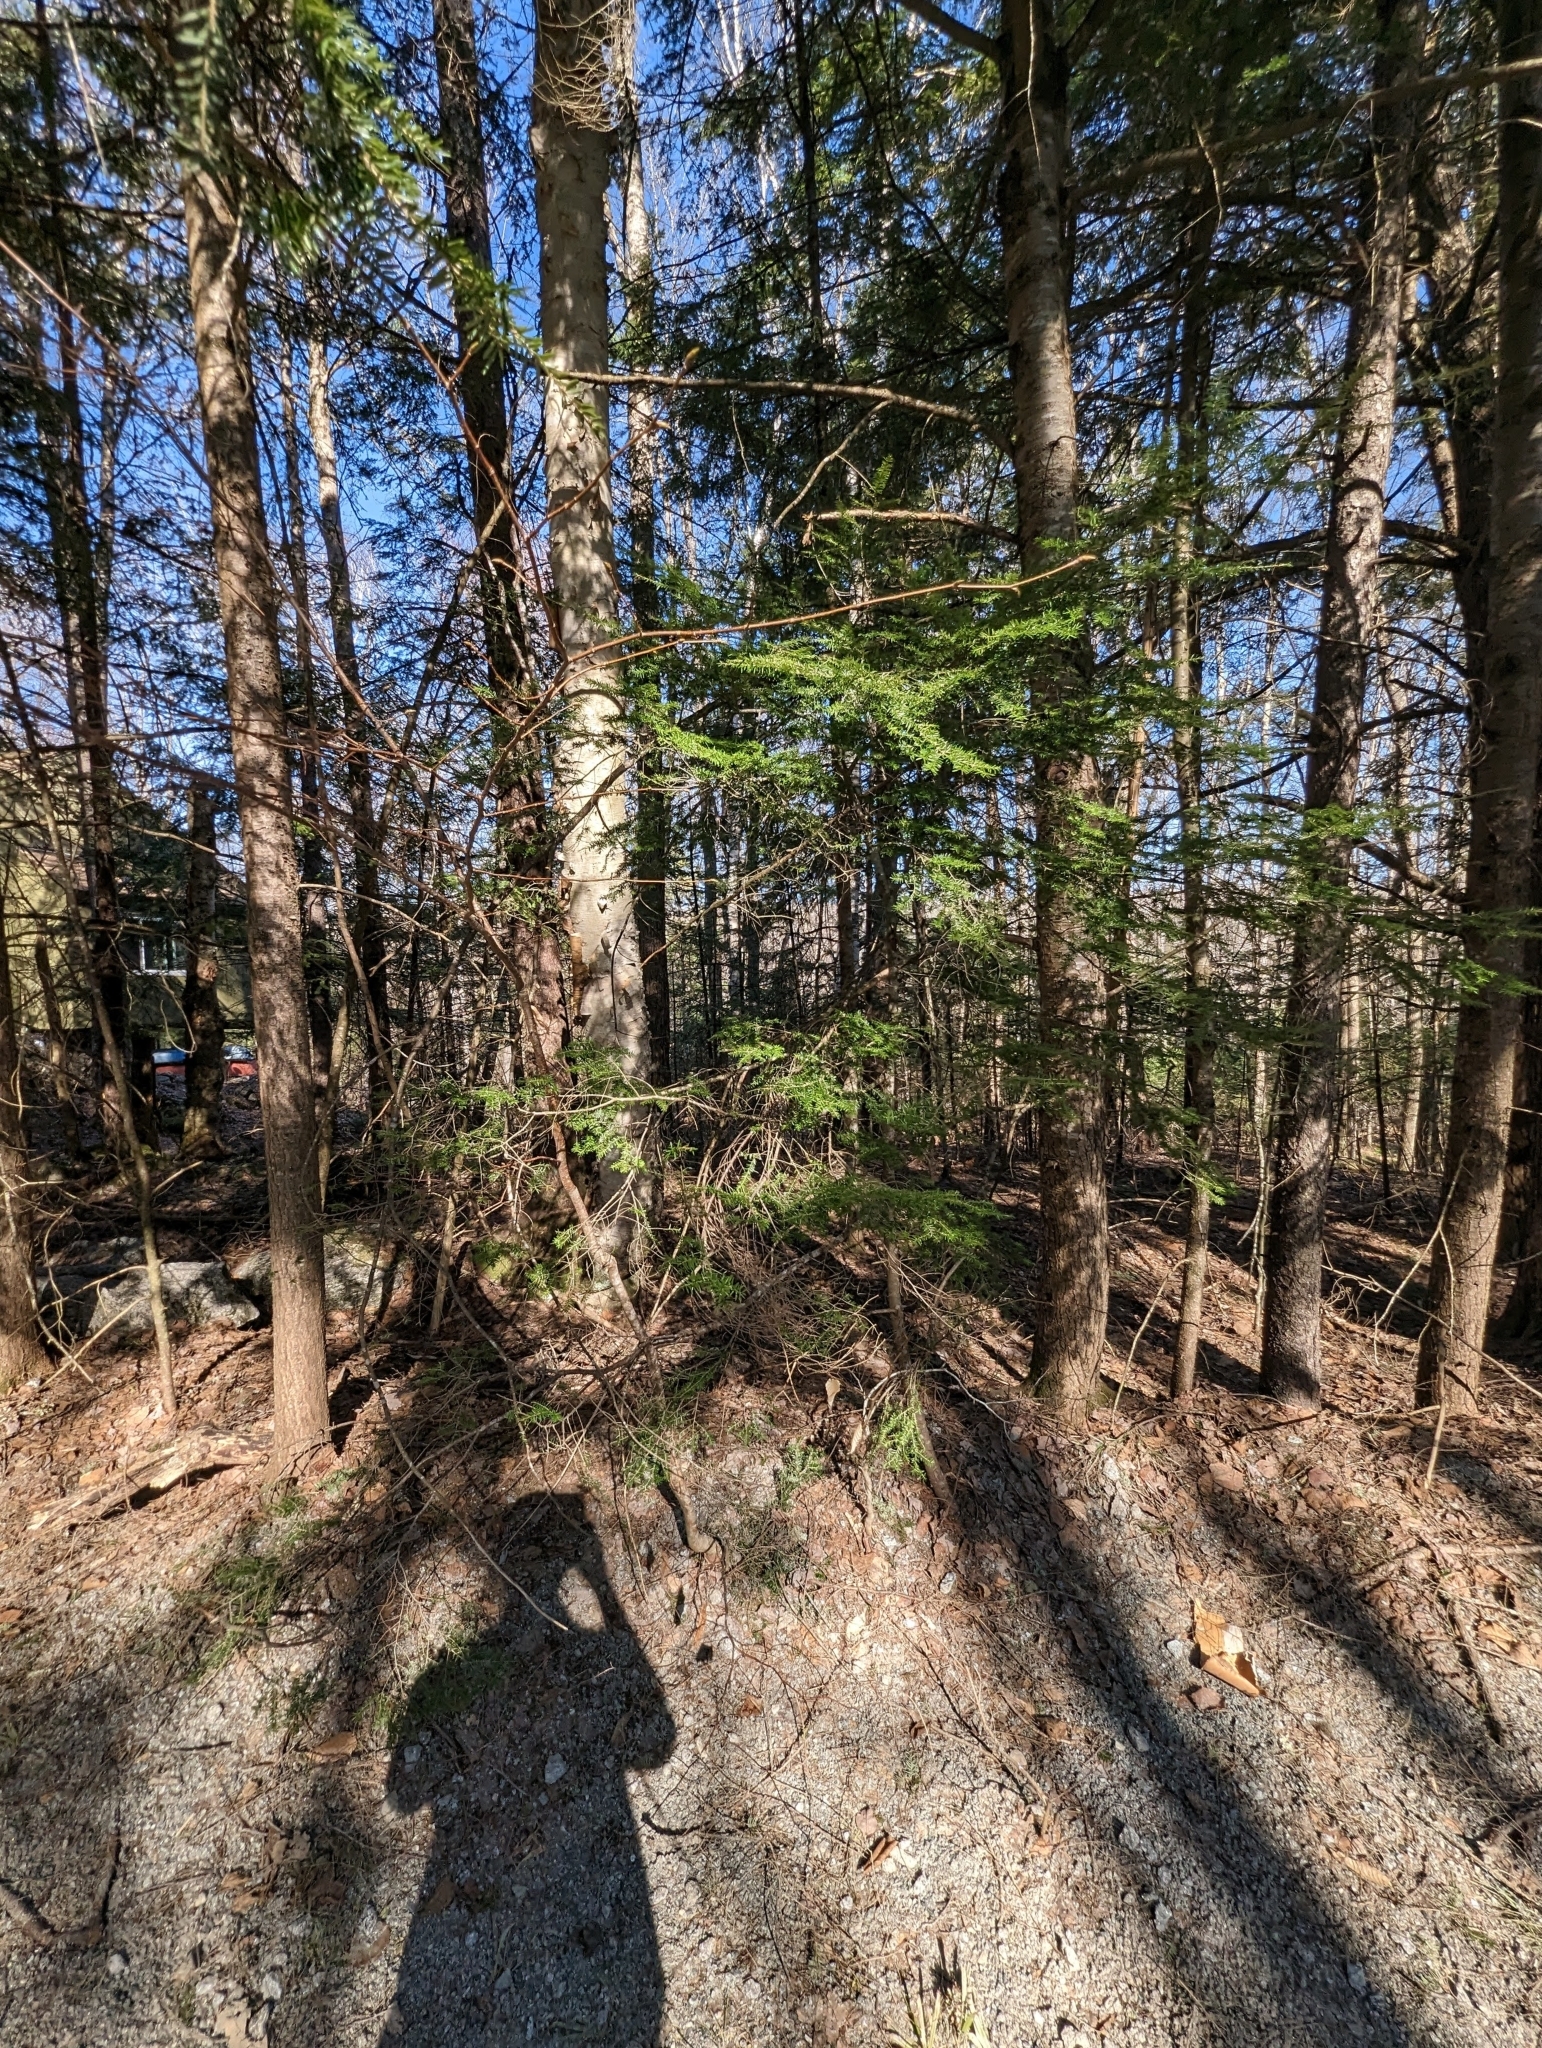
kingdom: Plantae
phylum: Tracheophyta
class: Pinopsida
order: Pinales
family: Pinaceae
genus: Tsuga
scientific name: Tsuga canadensis
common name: Eastern hemlock
